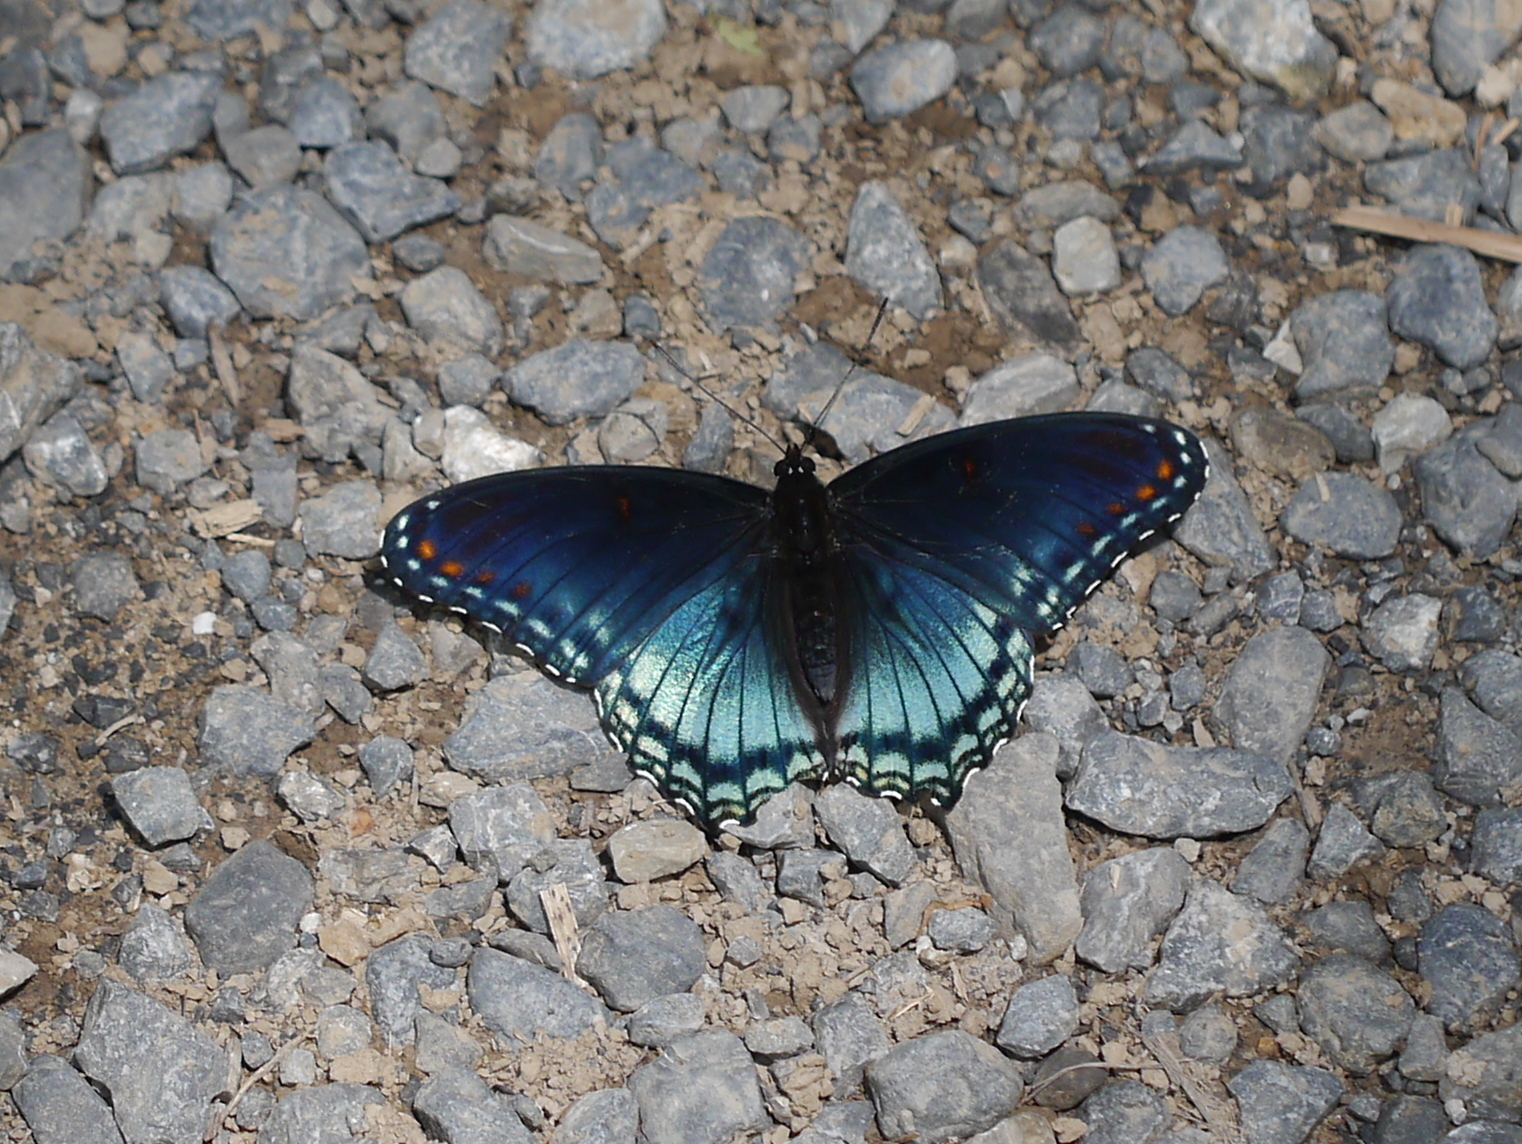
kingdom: Animalia
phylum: Arthropoda
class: Insecta
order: Lepidoptera
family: Nymphalidae
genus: Limenitis
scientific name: Limenitis astyanax
